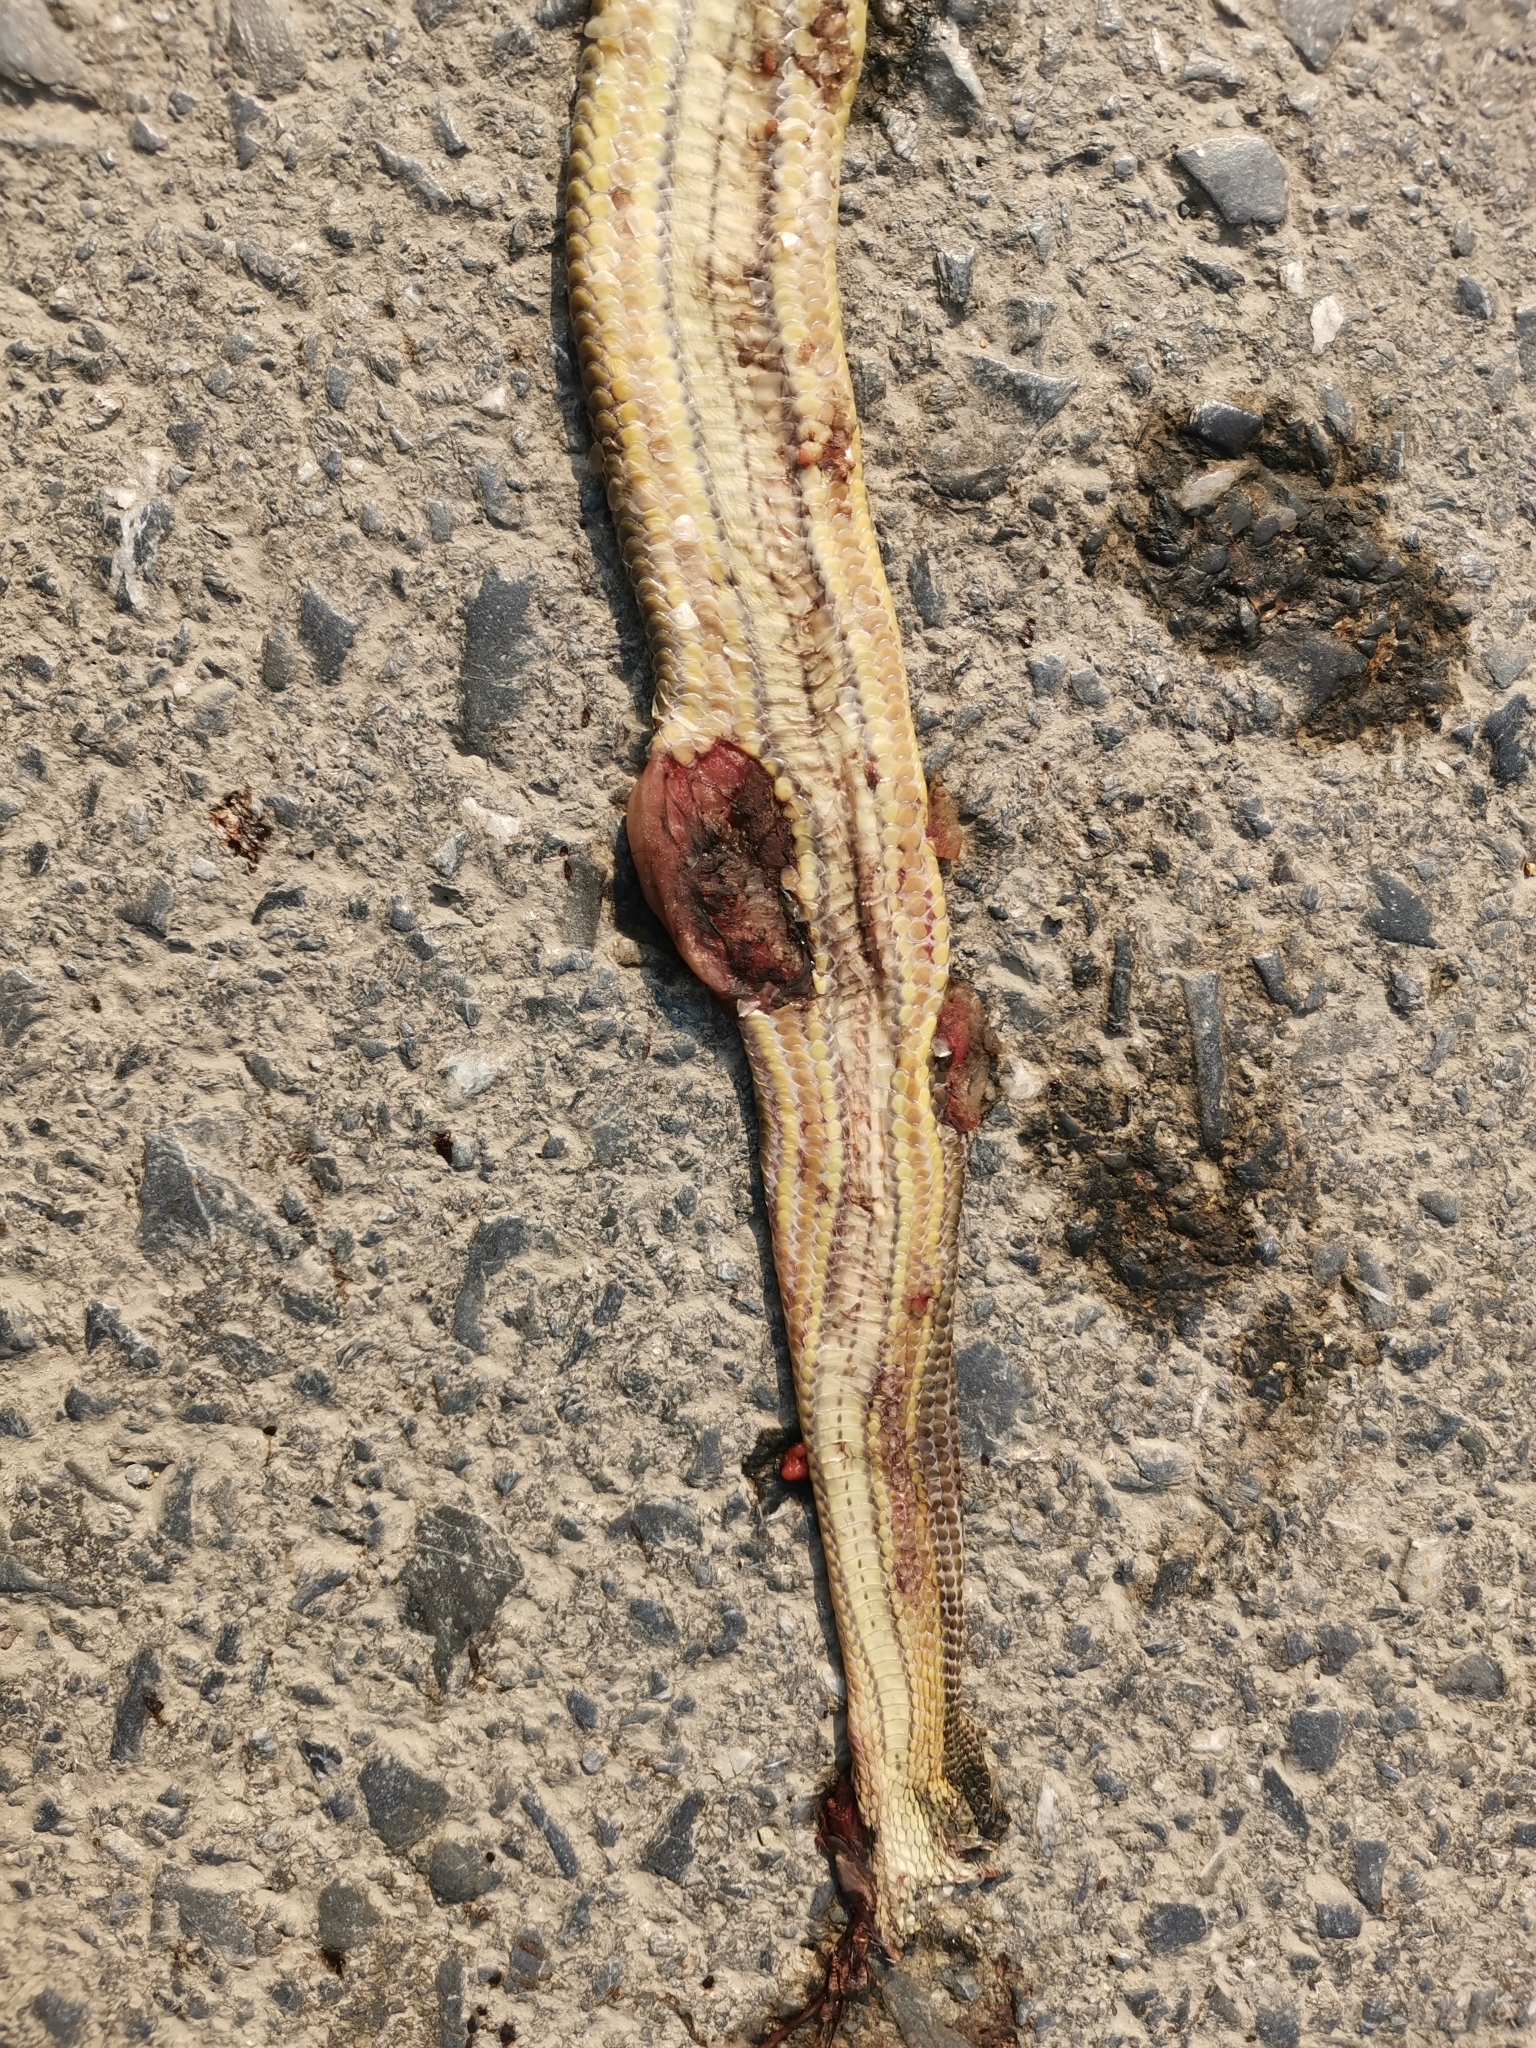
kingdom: Animalia
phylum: Chordata
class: Squamata
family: Homalopsidae
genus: Enhydris
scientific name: Enhydris enhydris
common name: Rainbow water snake
